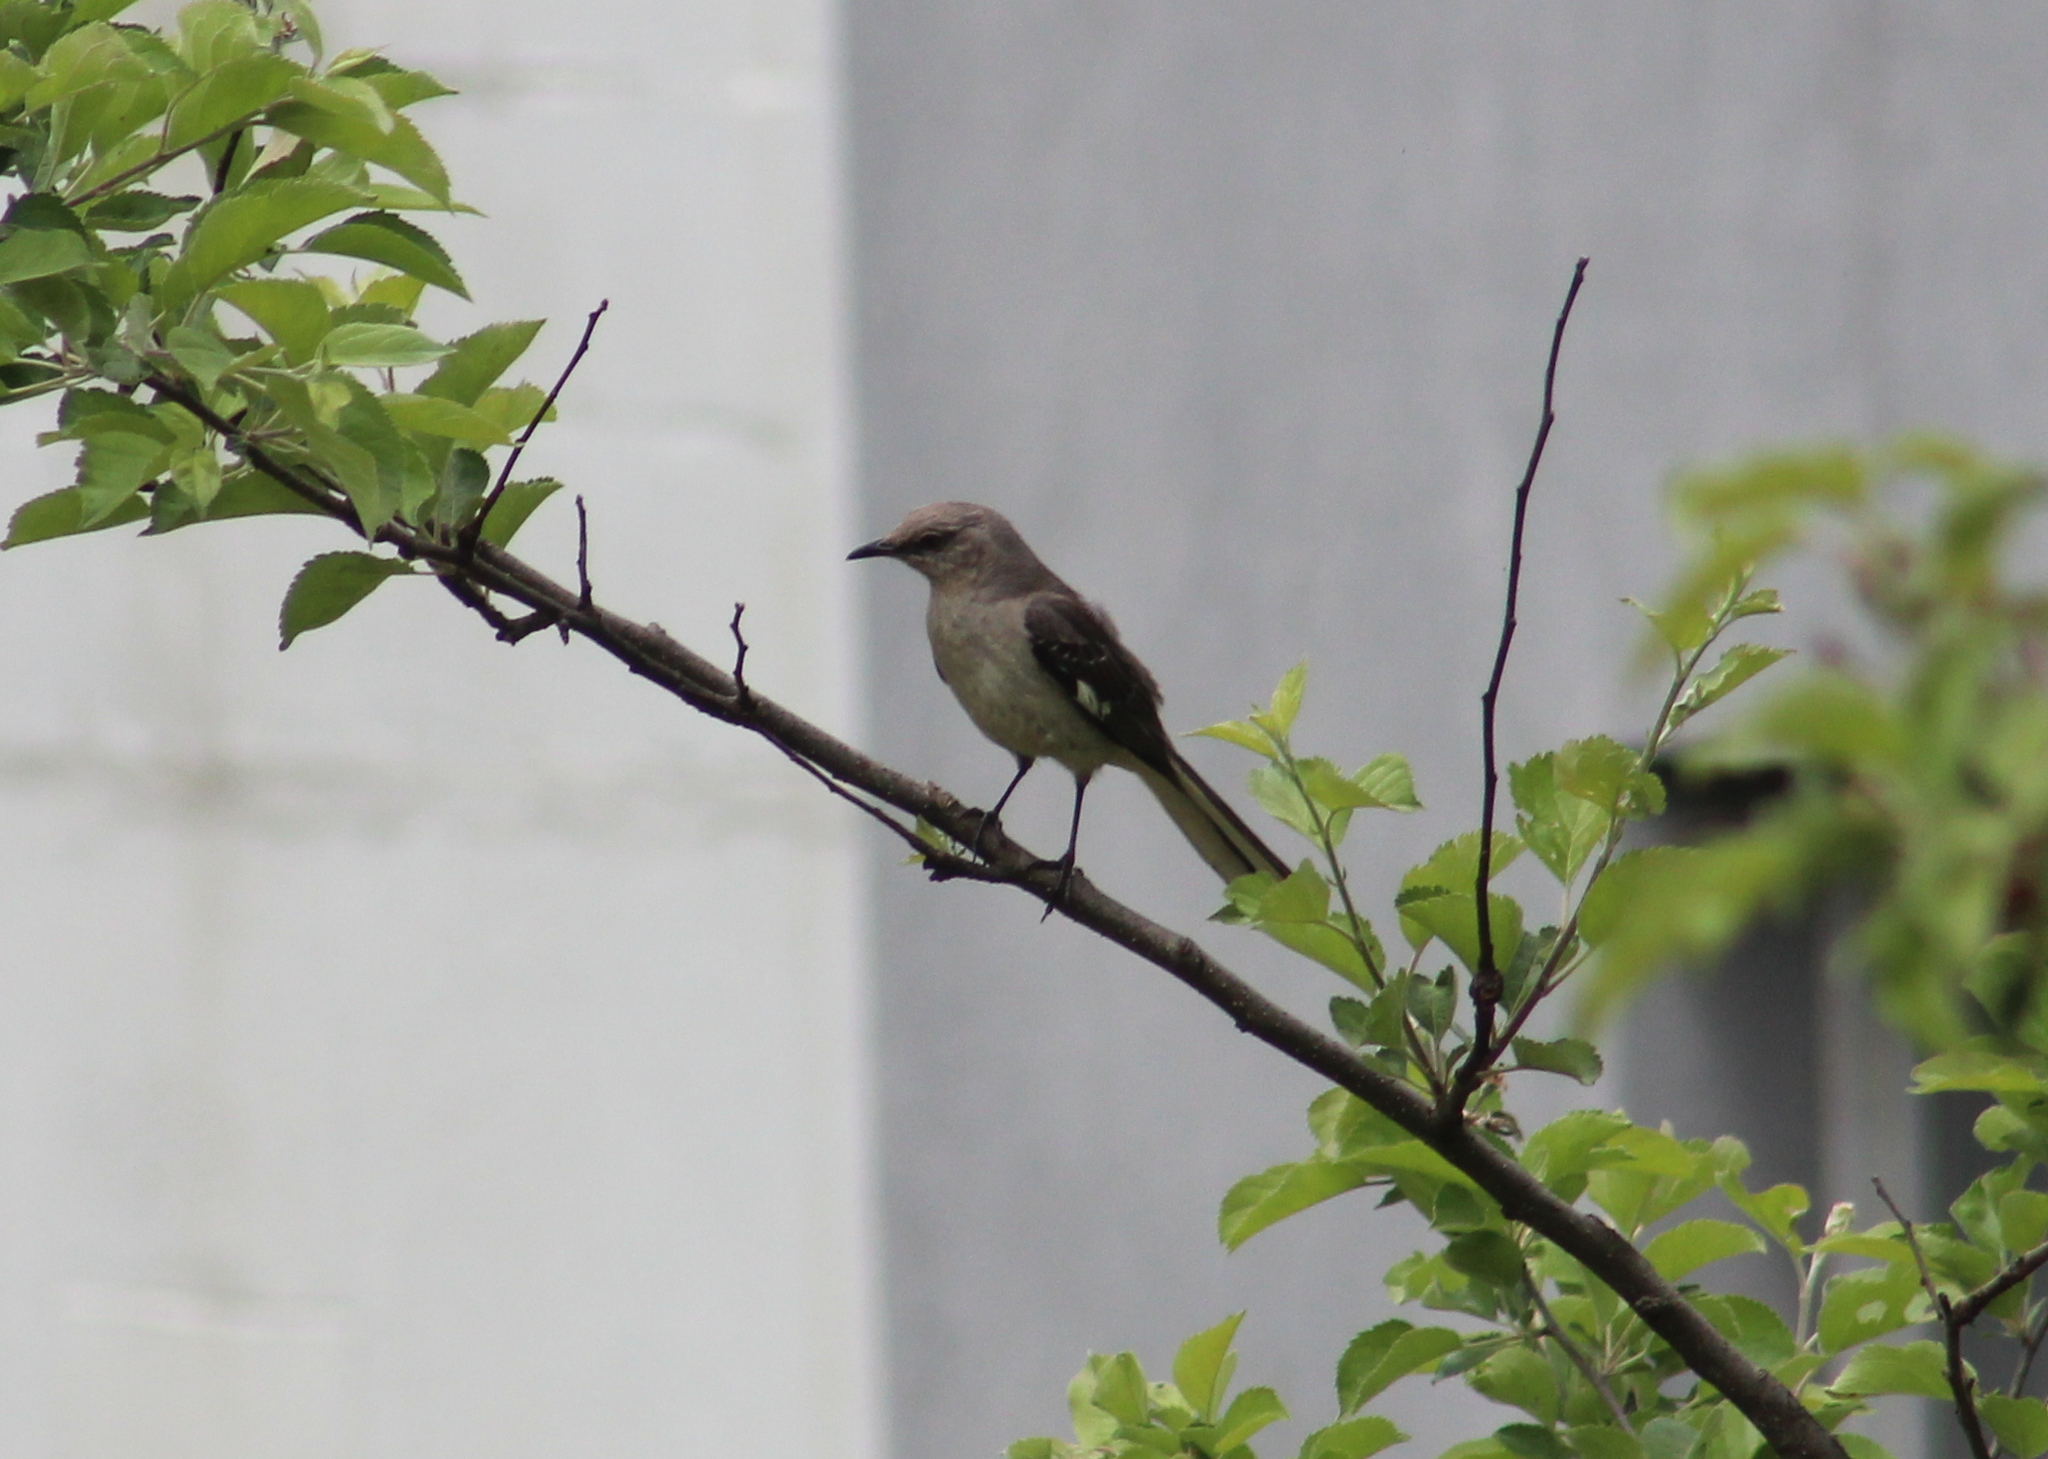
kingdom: Animalia
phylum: Chordata
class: Aves
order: Passeriformes
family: Mimidae
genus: Mimus
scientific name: Mimus polyglottos
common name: Northern mockingbird
